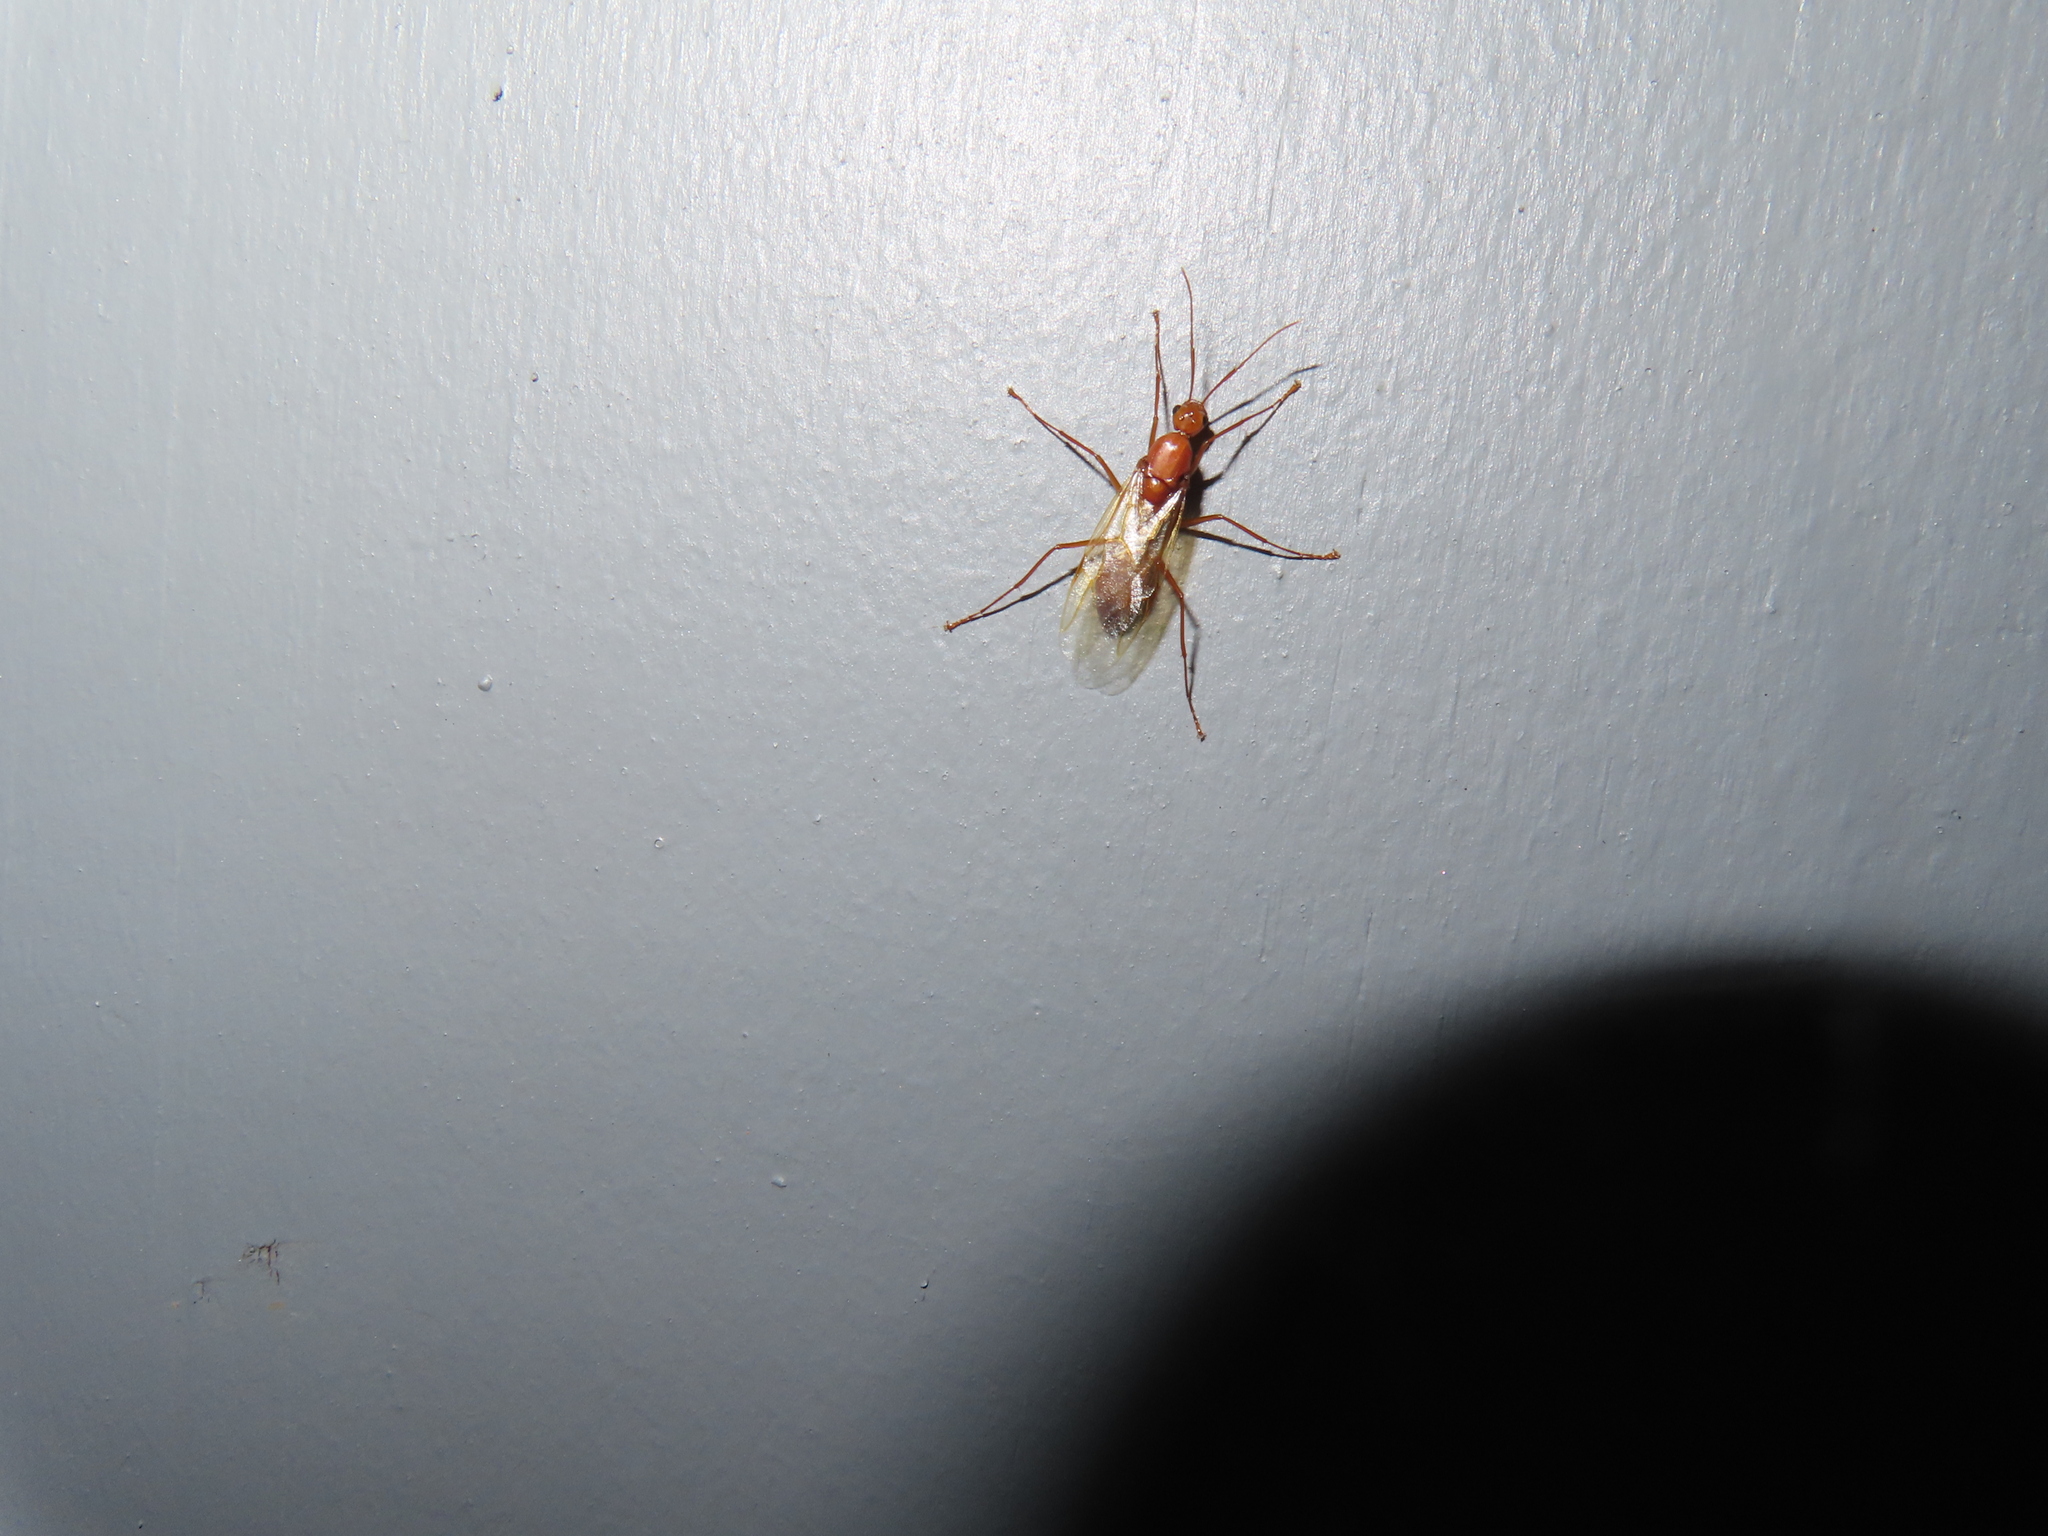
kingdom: Animalia
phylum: Arthropoda
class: Insecta
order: Hymenoptera
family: Formicidae
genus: Camponotus
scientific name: Camponotus castaneus
